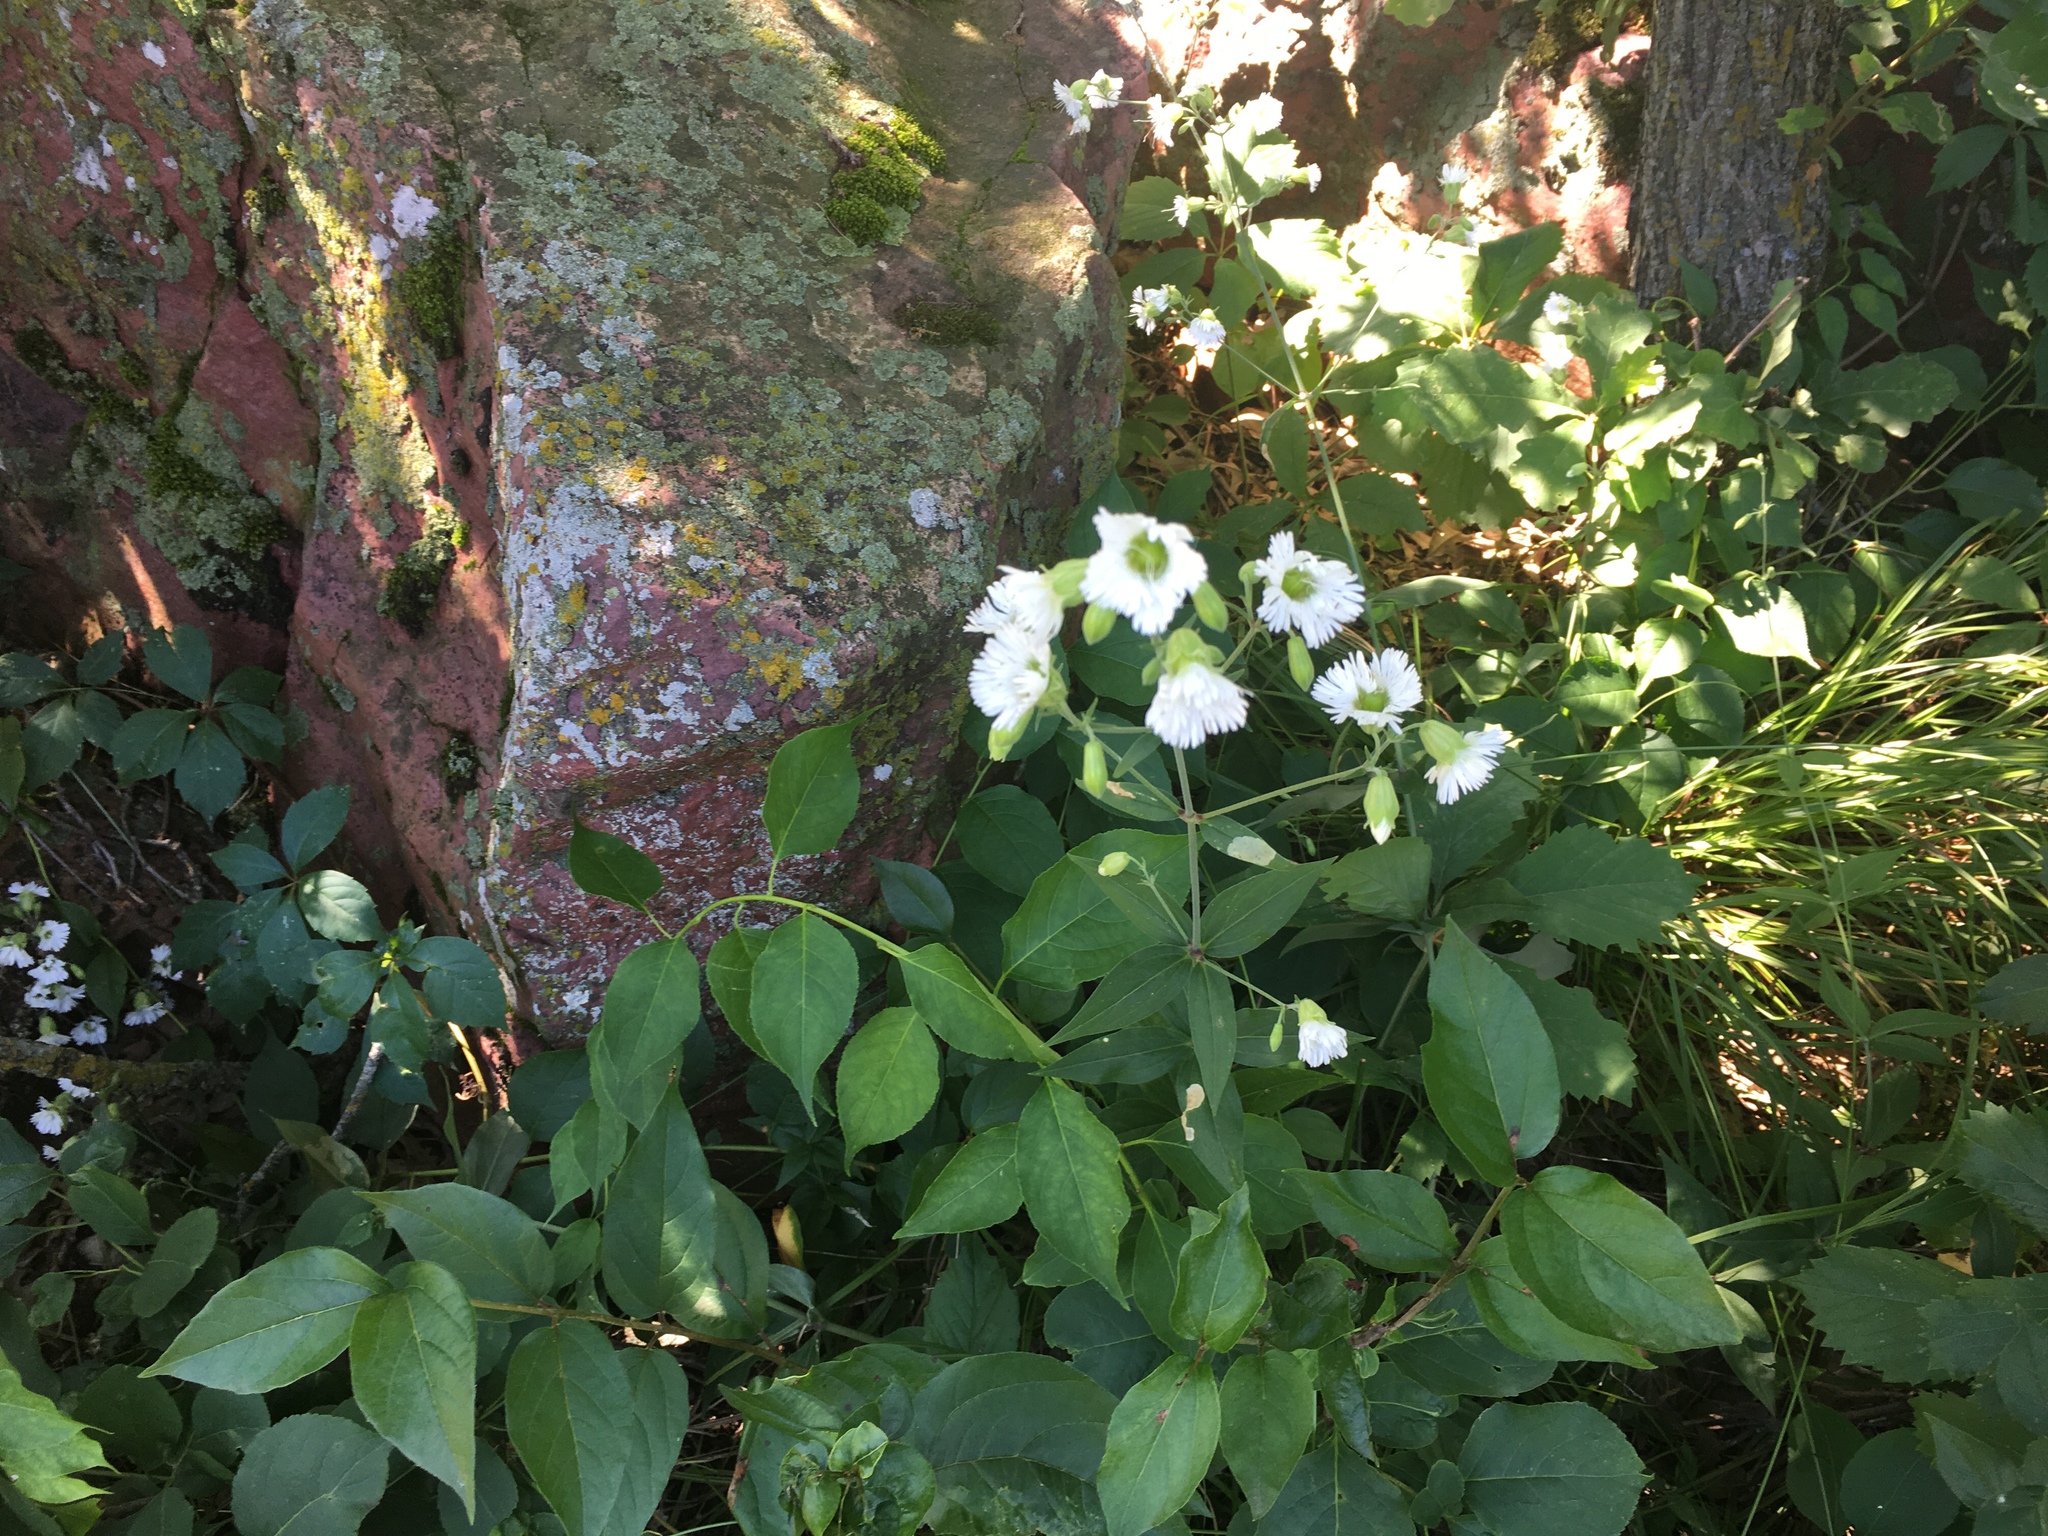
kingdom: Plantae
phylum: Tracheophyta
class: Magnoliopsida
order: Caryophyllales
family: Caryophyllaceae
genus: Silene
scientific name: Silene stellata
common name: Starry campion
